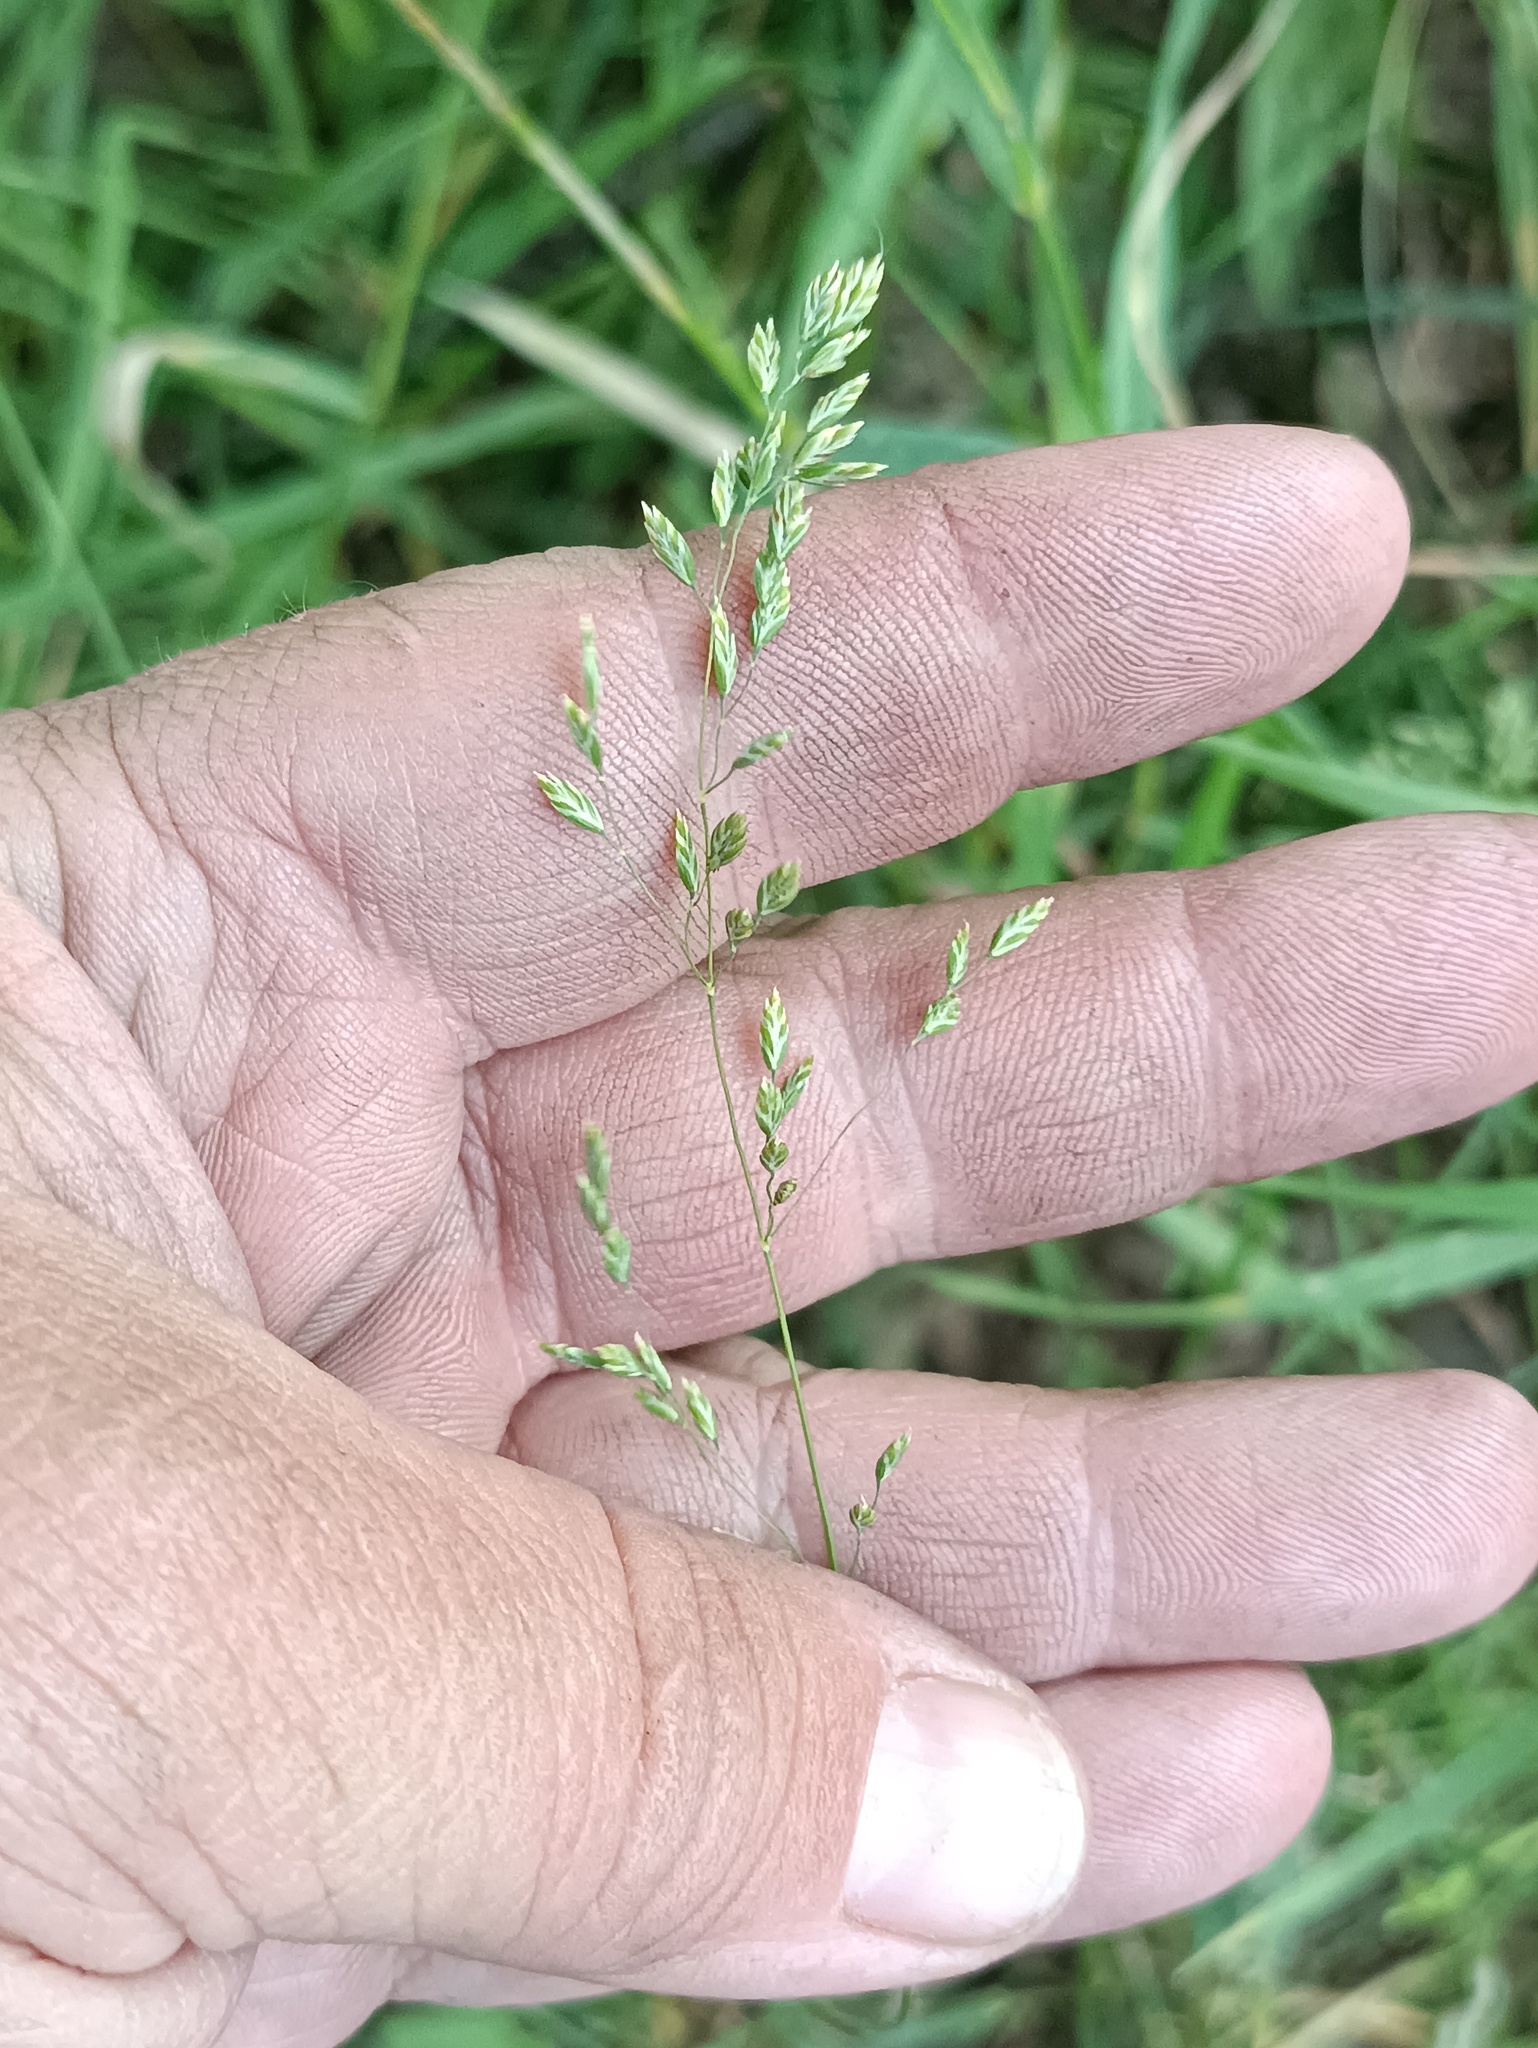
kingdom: Plantae
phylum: Tracheophyta
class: Liliopsida
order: Poales
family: Poaceae
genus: Poa
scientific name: Poa annua
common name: Annual bluegrass
